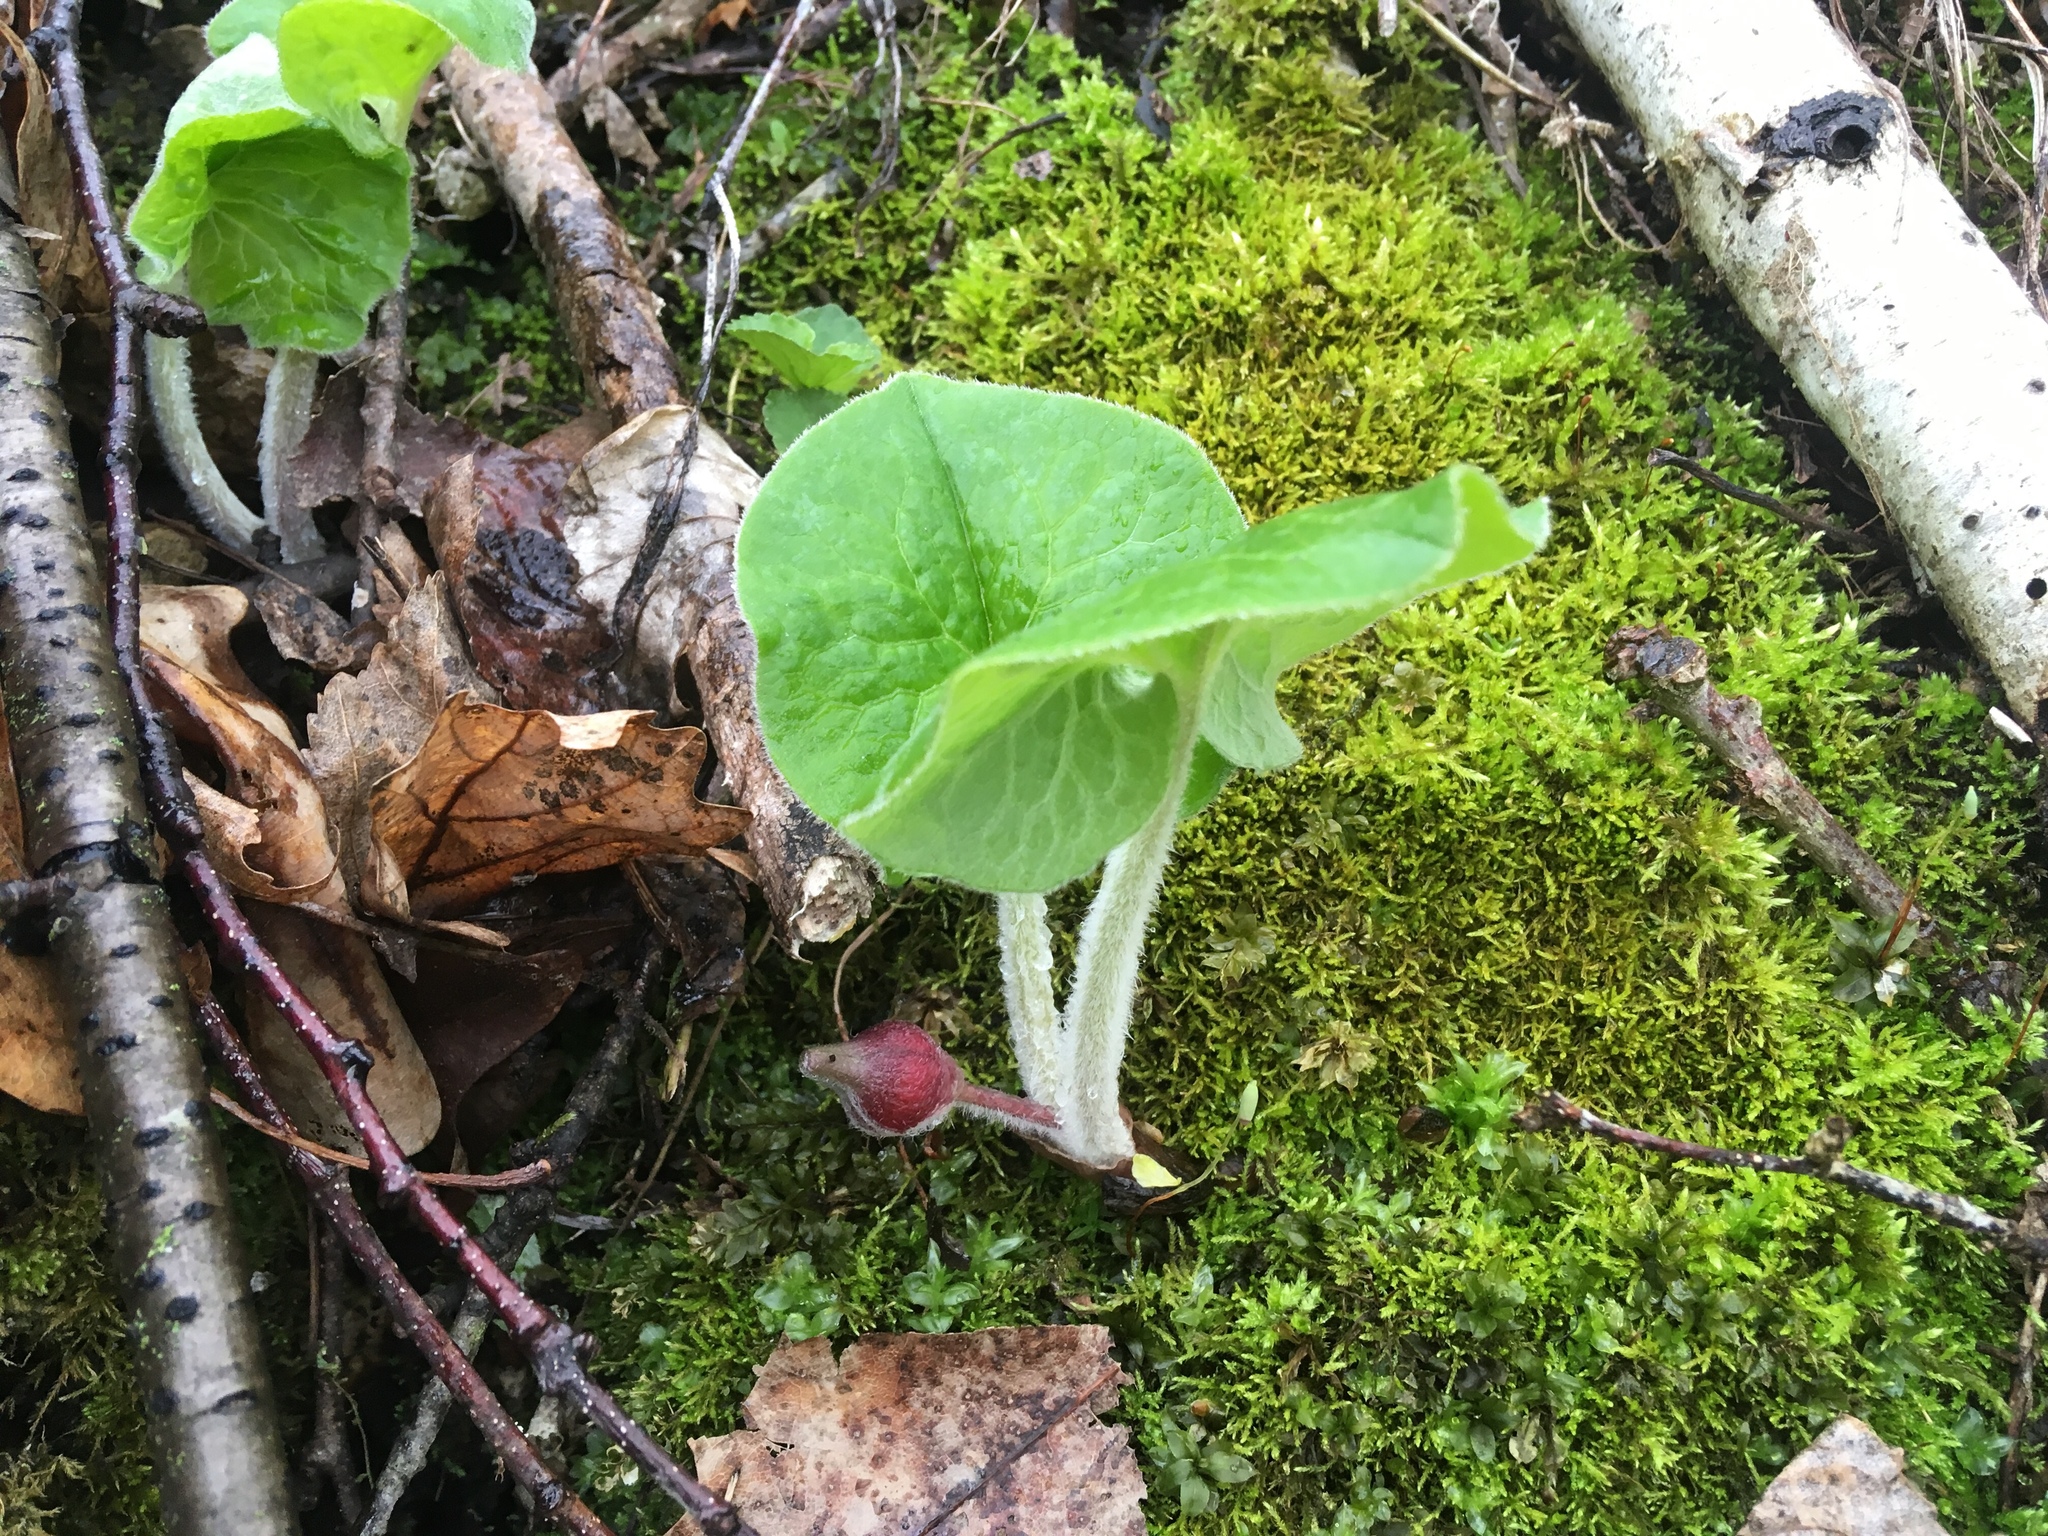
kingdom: Plantae
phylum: Tracheophyta
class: Magnoliopsida
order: Piperales
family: Aristolochiaceae
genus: Asarum
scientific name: Asarum canadense
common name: Wild ginger
